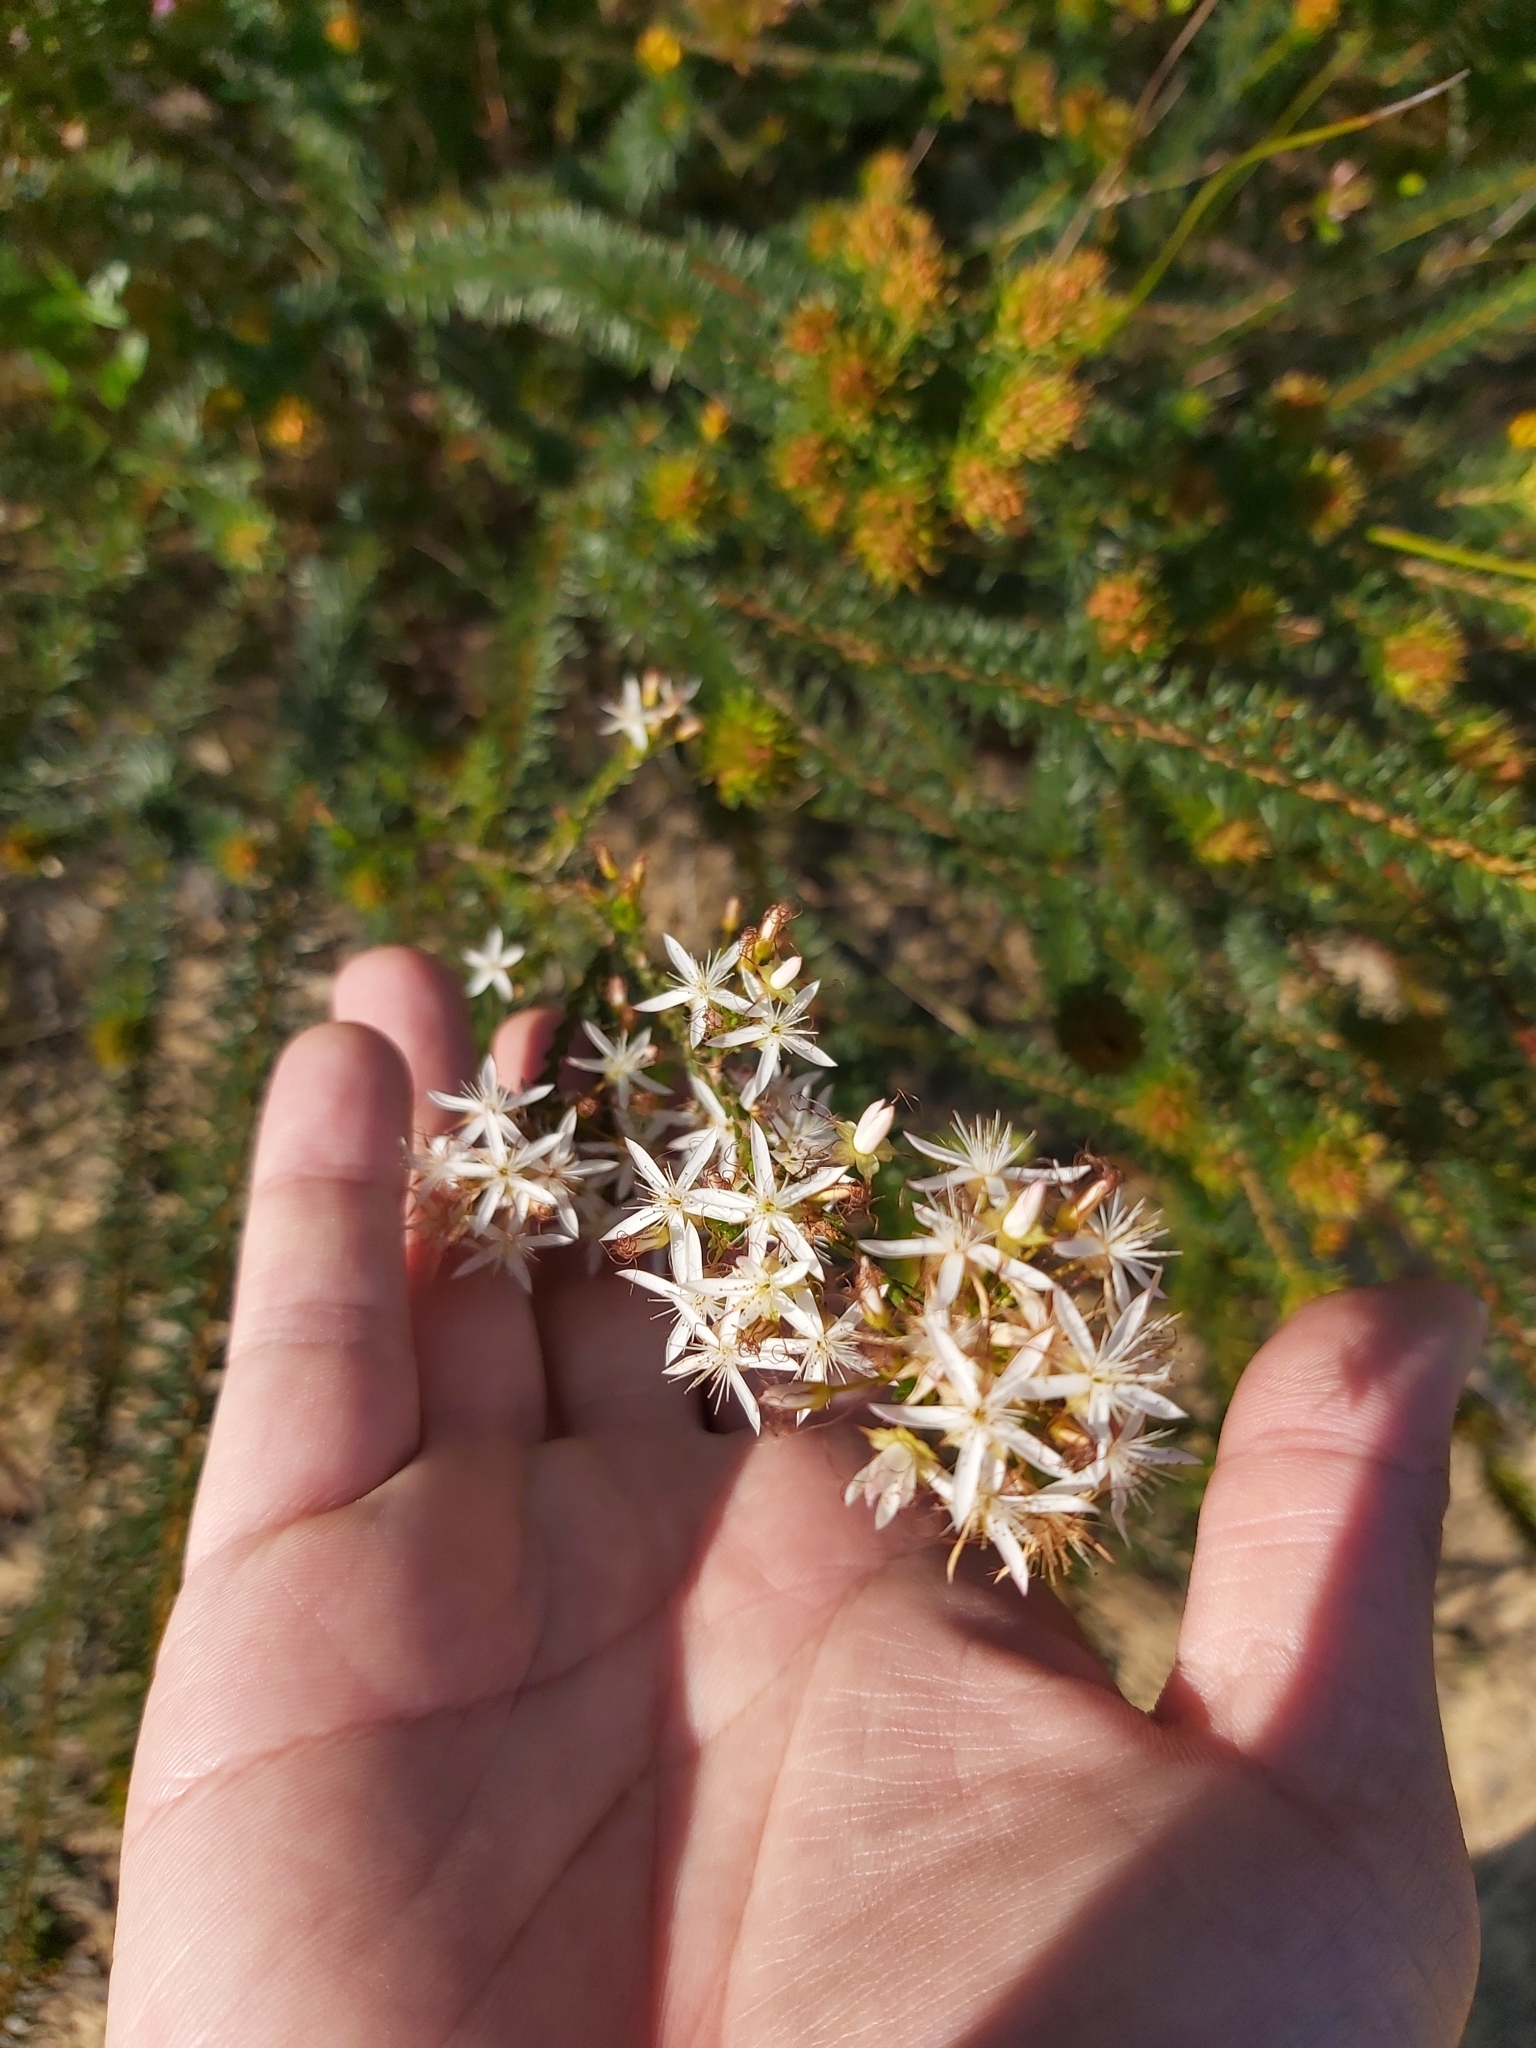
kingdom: Plantae
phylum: Tracheophyta
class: Magnoliopsida
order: Myrtales
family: Myrtaceae
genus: Calytrix
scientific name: Calytrix tetragona
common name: Common fringe myrtle
